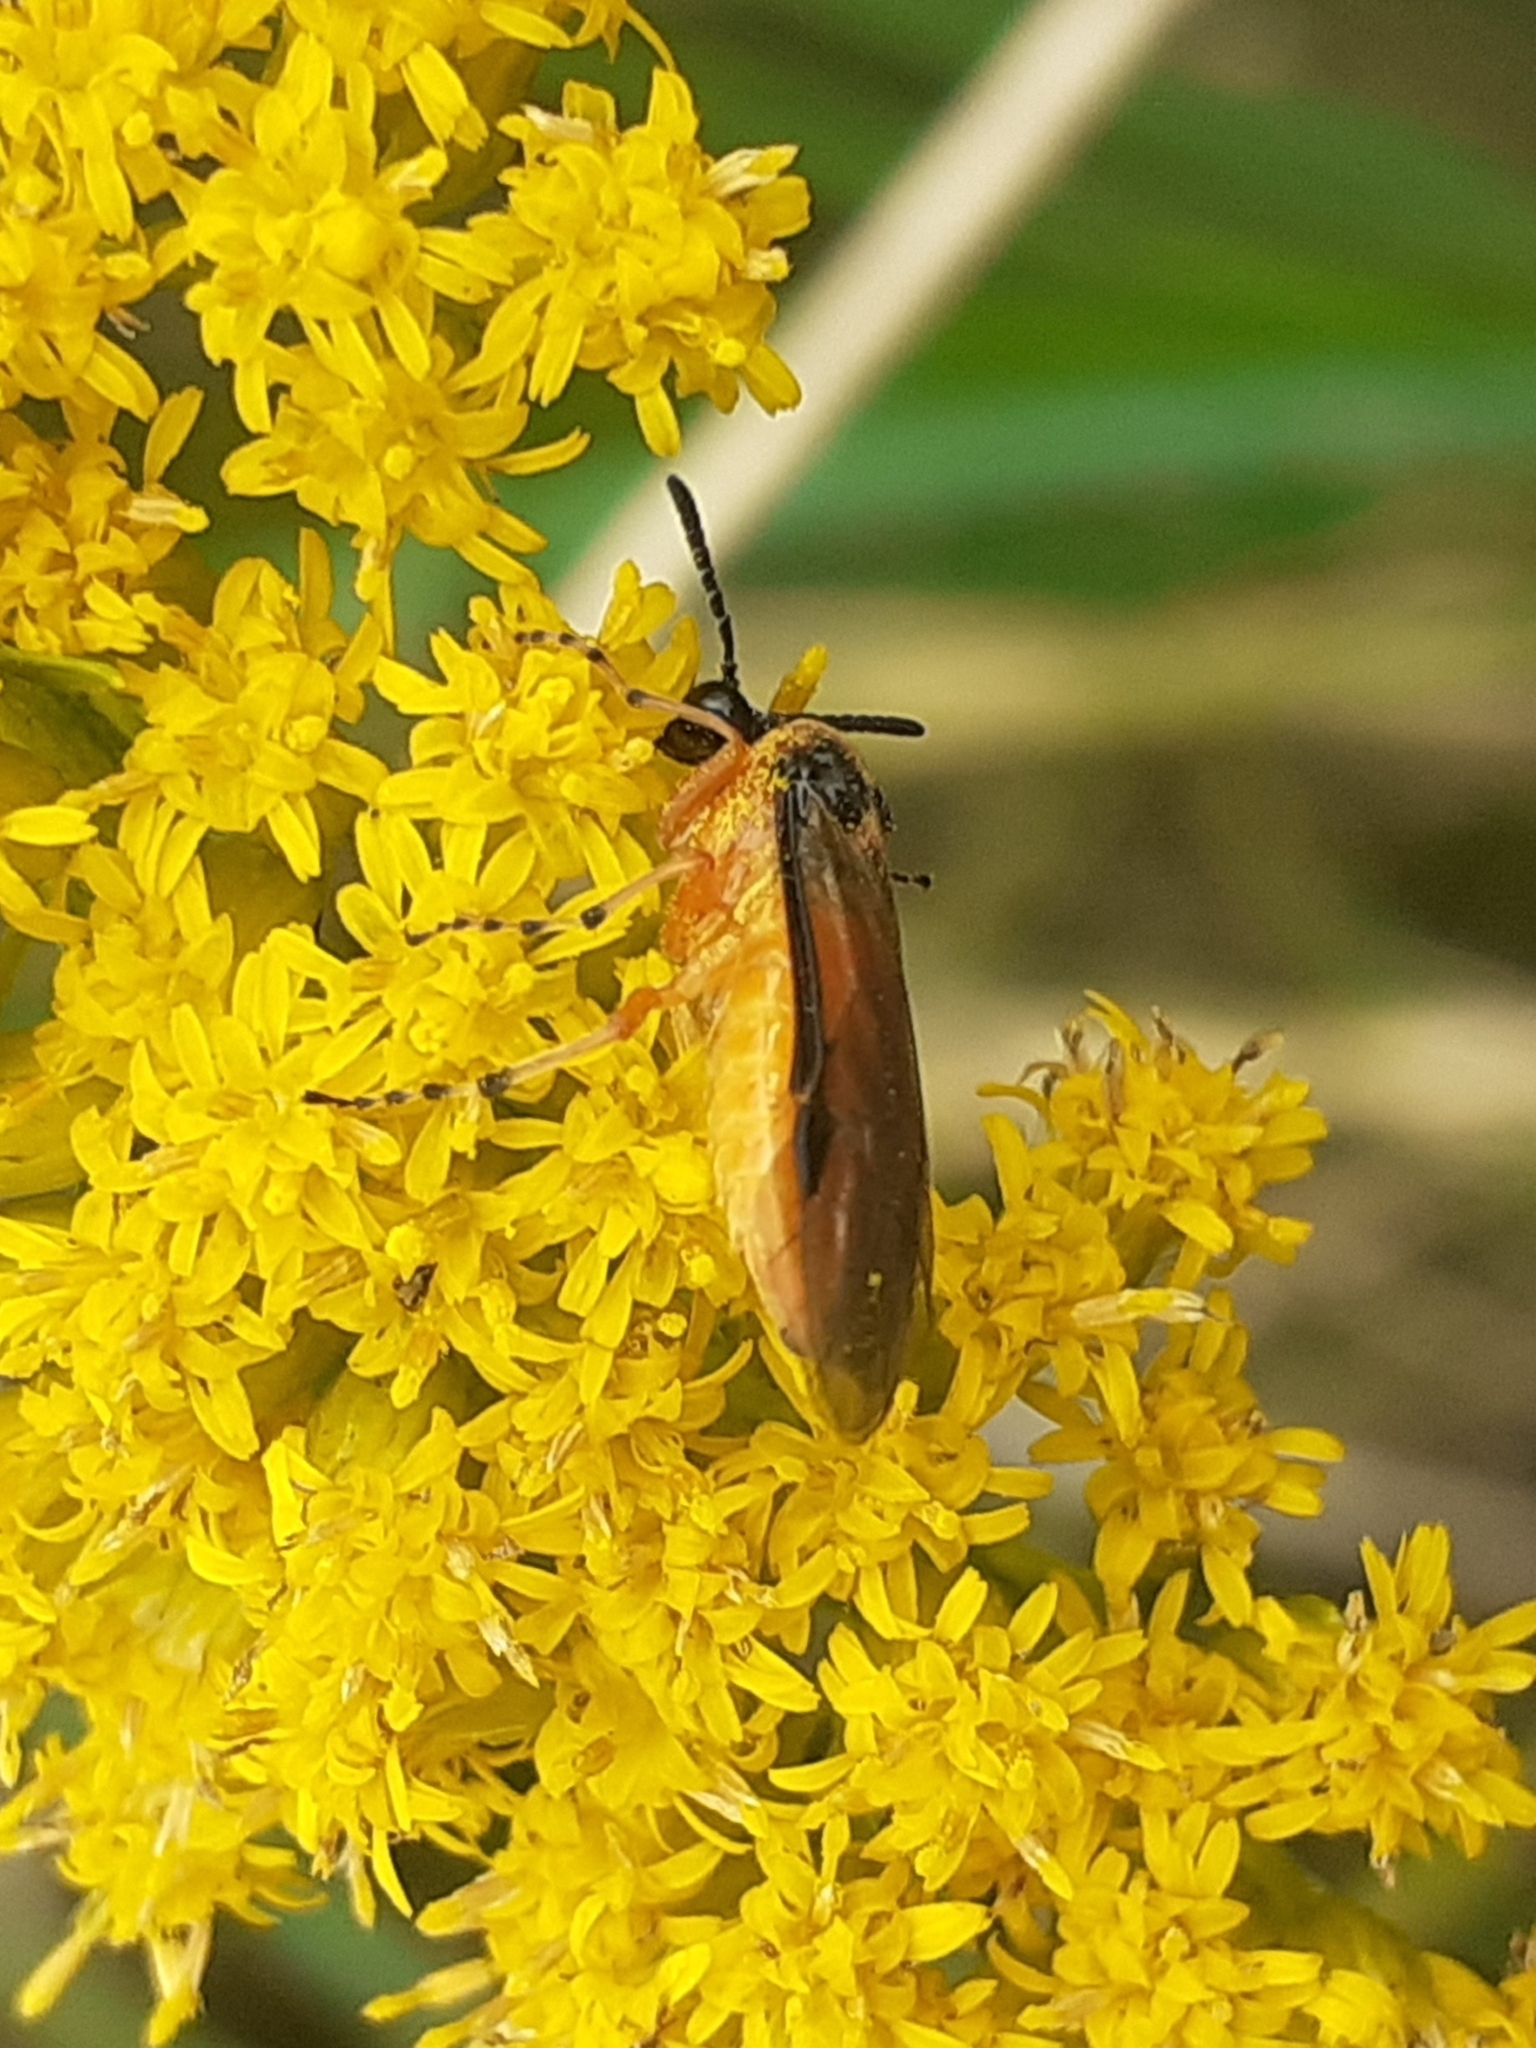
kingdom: Animalia
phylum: Arthropoda
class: Insecta
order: Hymenoptera
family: Tenthredinidae
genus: Athalia
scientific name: Athalia rosae
